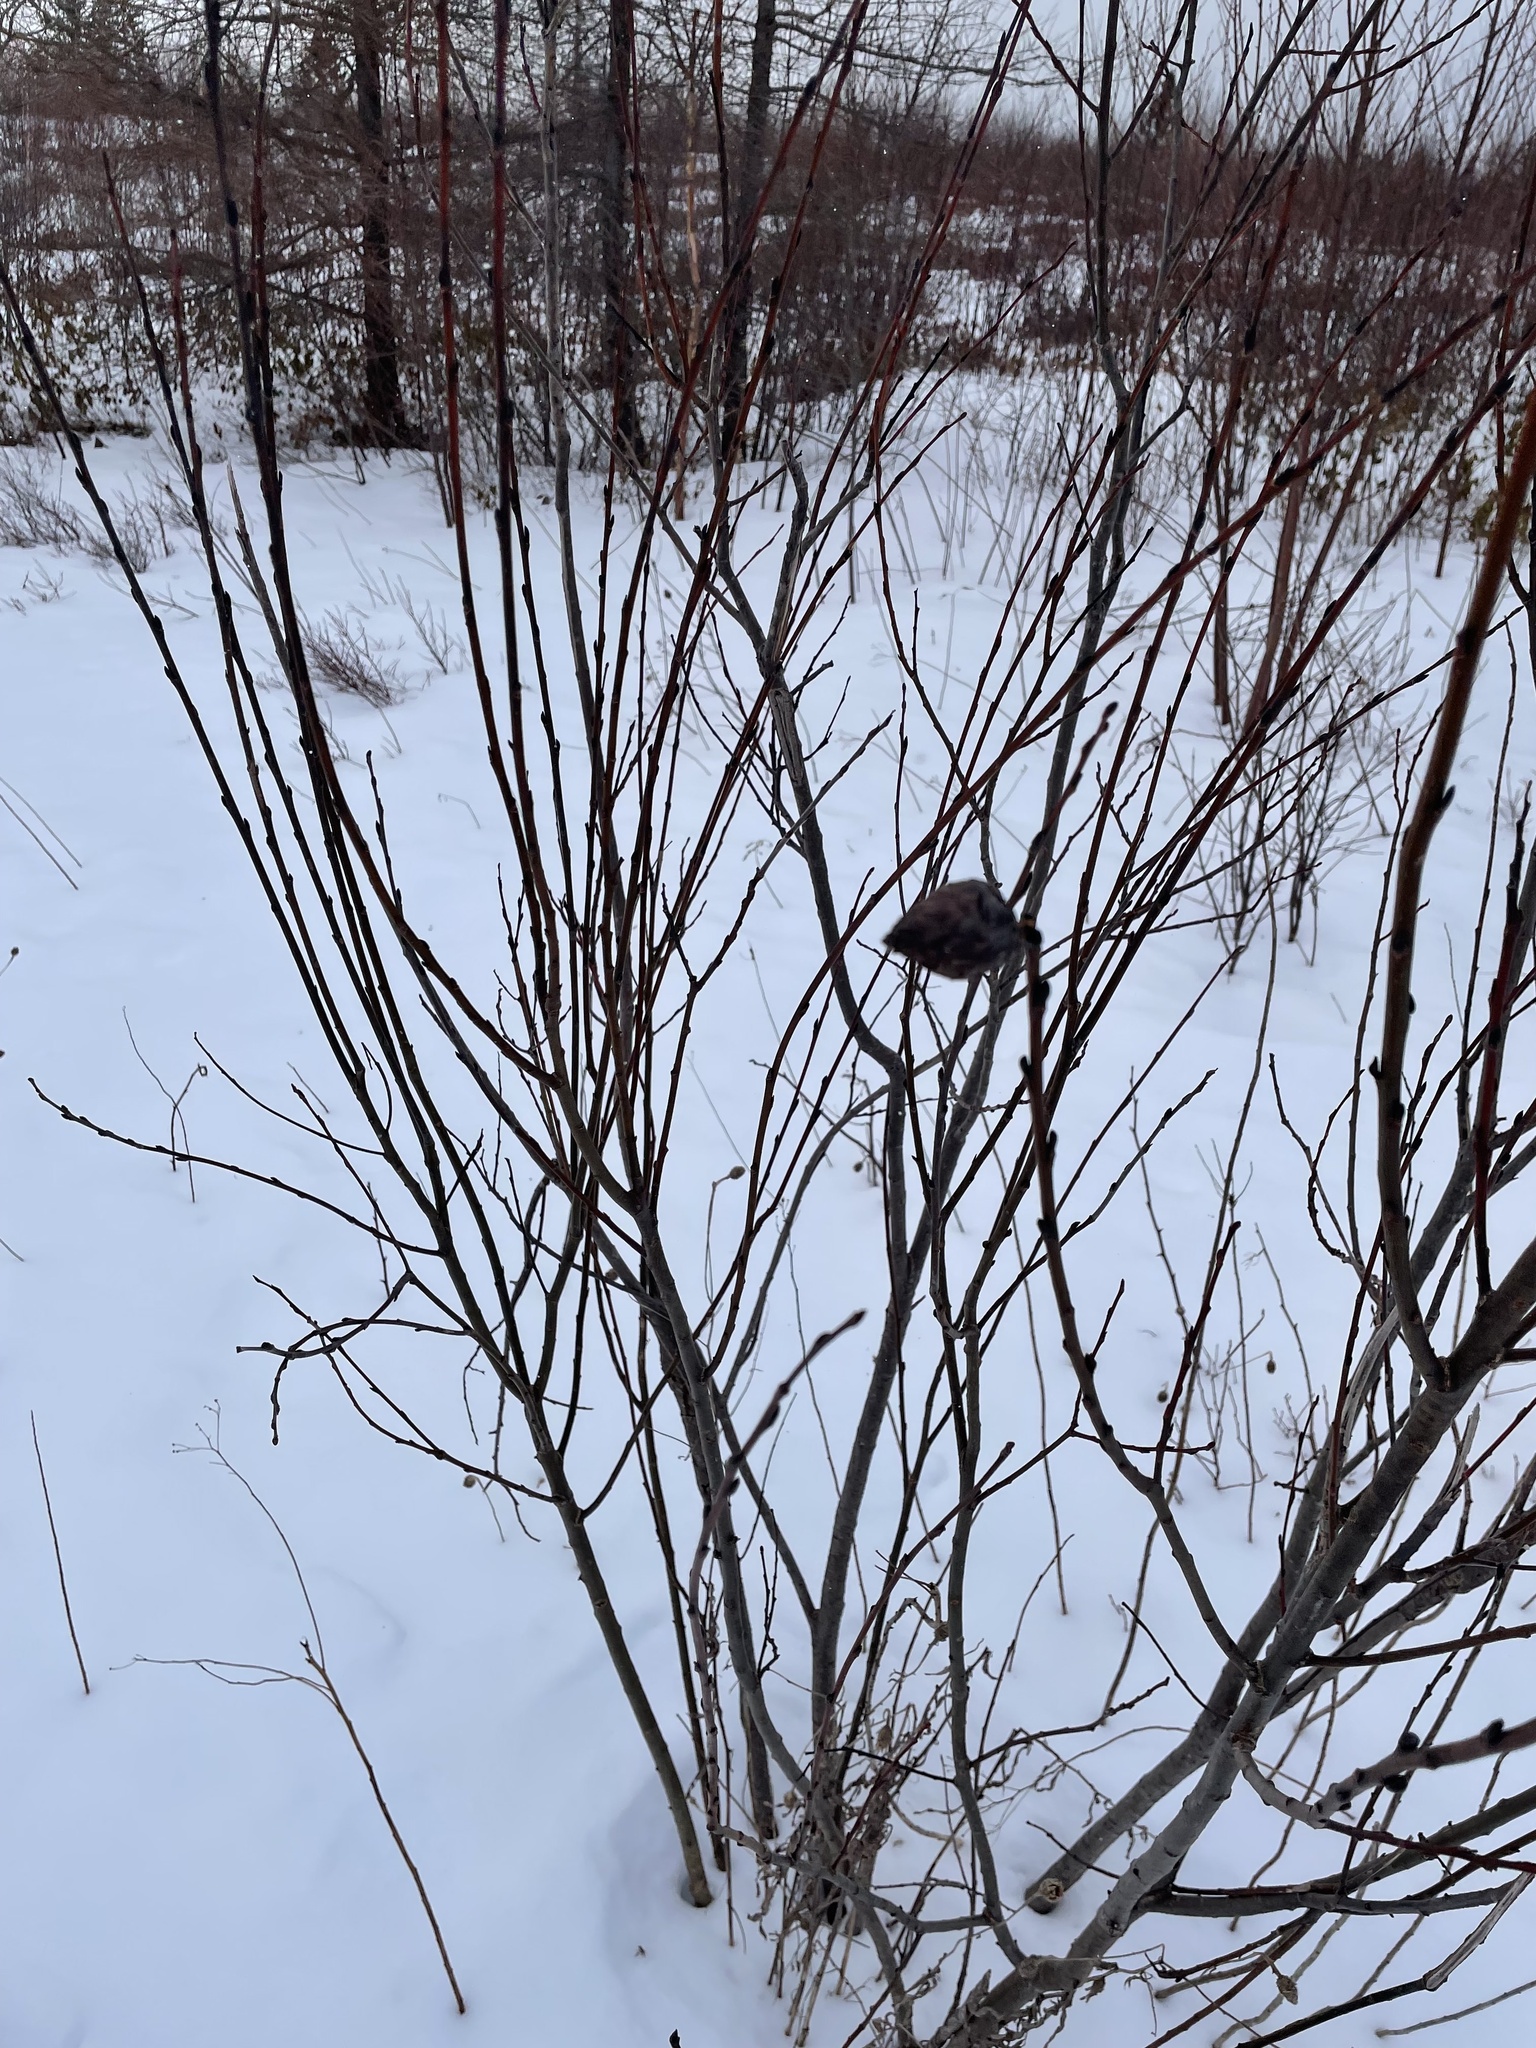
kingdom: Animalia
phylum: Arthropoda
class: Insecta
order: Diptera
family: Cecidomyiidae
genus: Rabdophaga
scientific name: Rabdophaga strobiloides
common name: Willow pinecone gall midge
